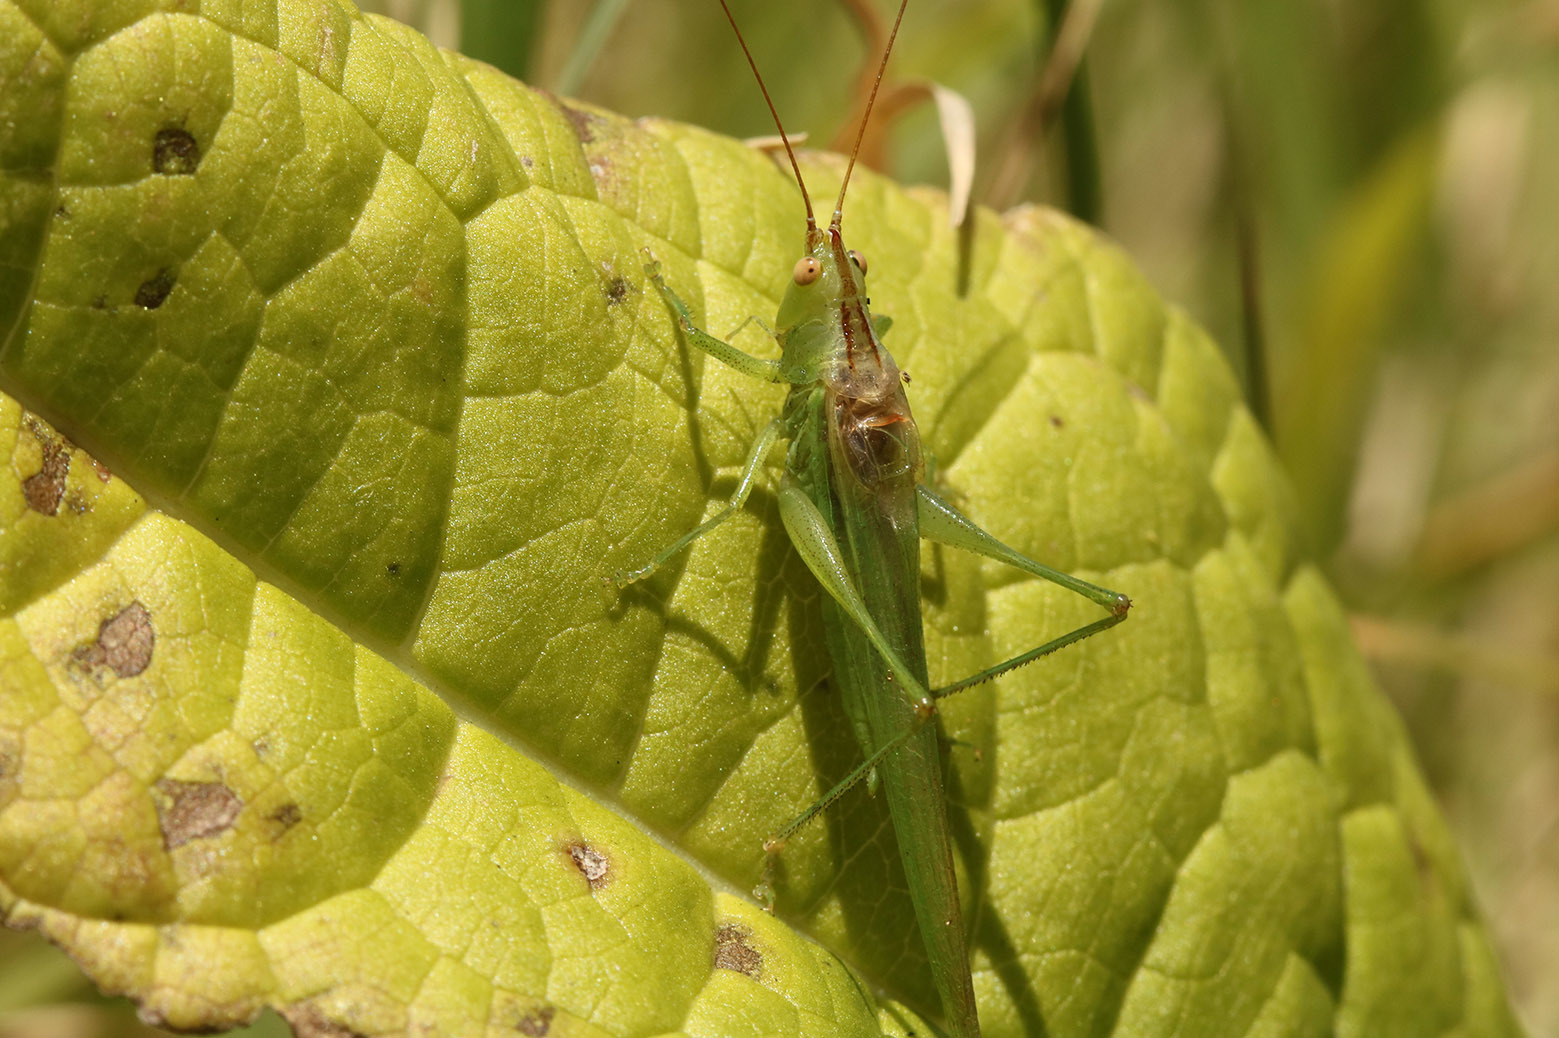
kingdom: Animalia
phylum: Arthropoda
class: Insecta
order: Orthoptera
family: Tettigoniidae
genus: Conocephalus
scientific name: Conocephalus longipes
